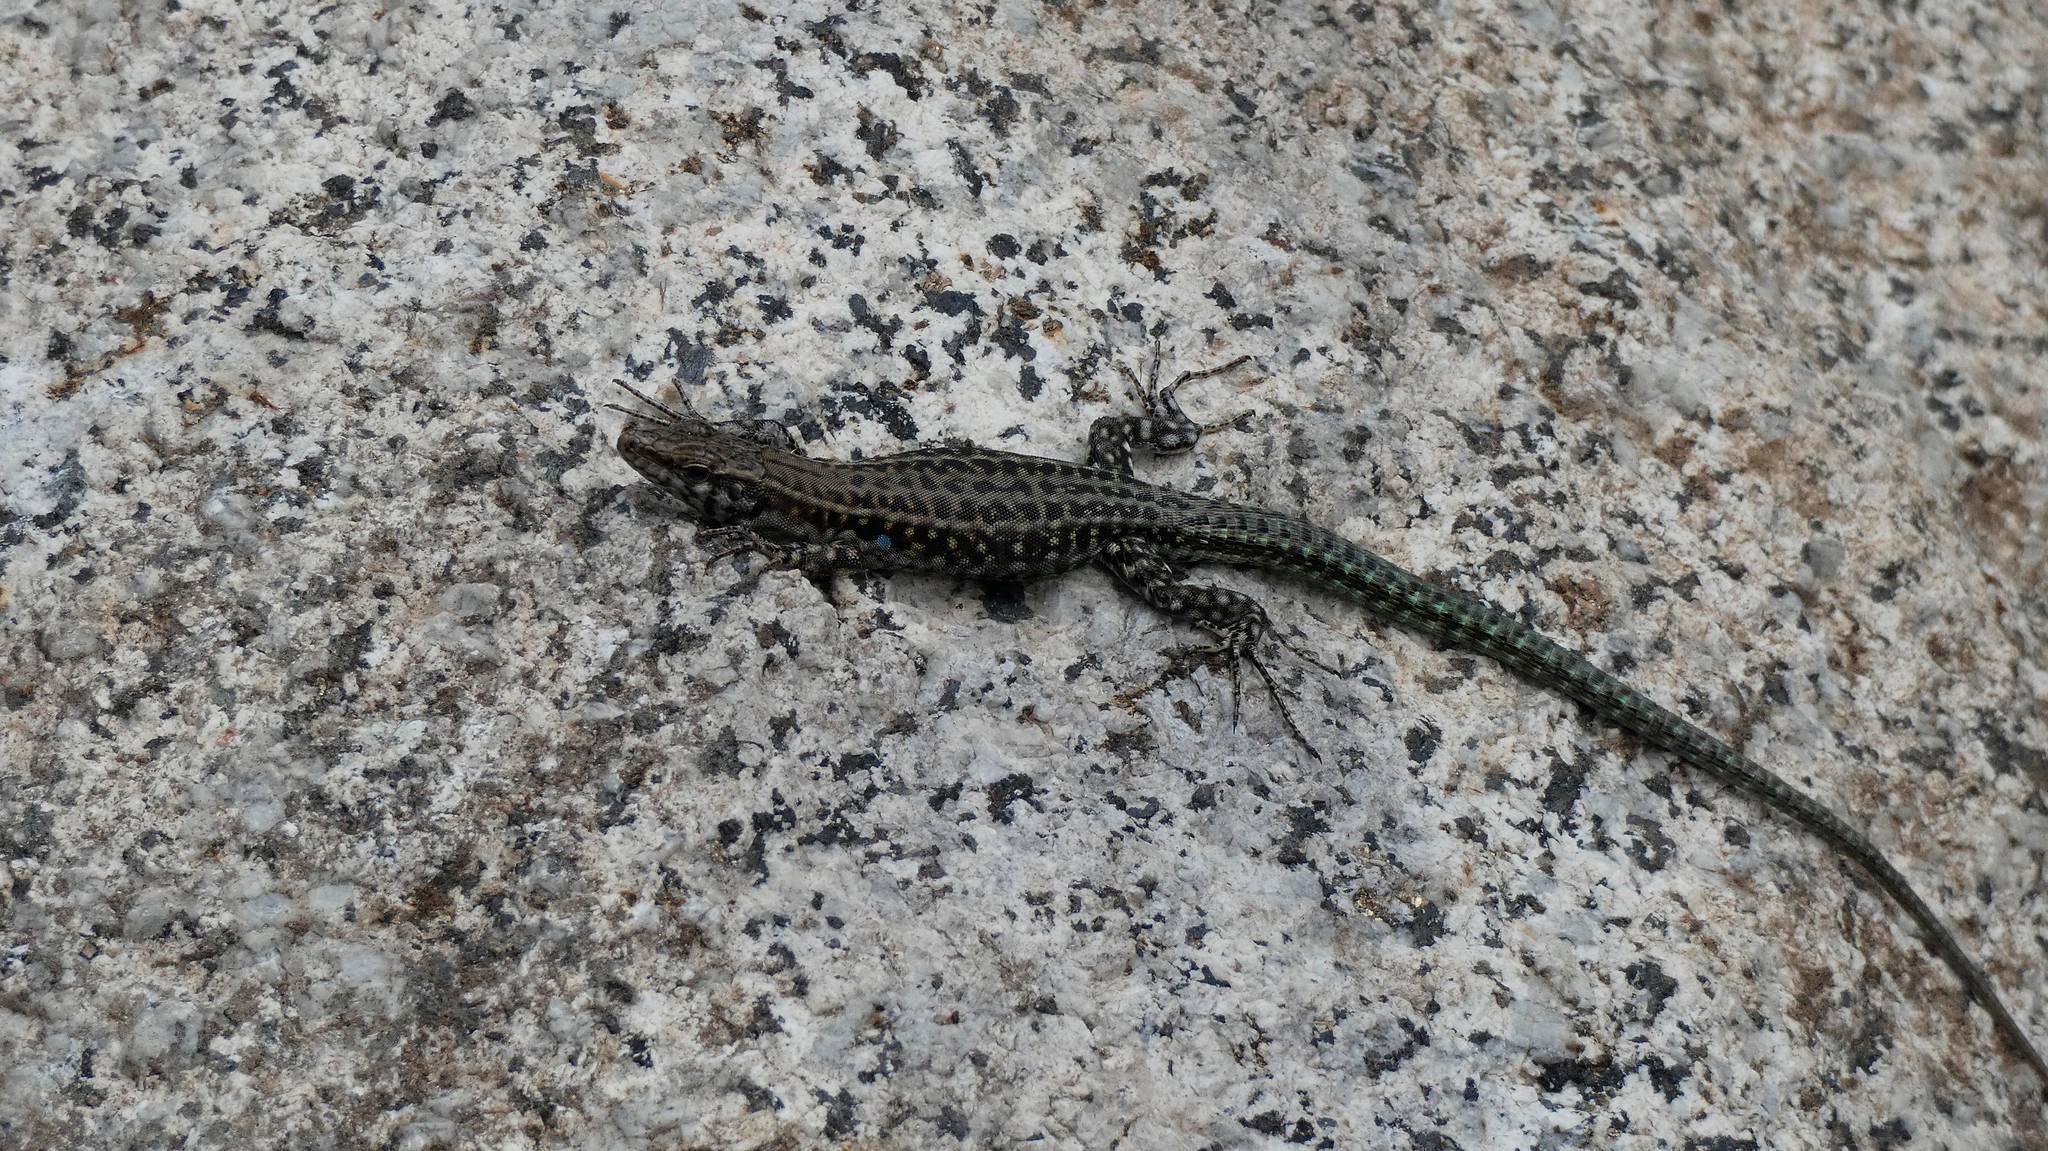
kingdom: Animalia
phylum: Chordata
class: Squamata
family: Lacertidae
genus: Podarcis
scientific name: Podarcis tiliguerta
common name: Tyrrhenian wall lizard
